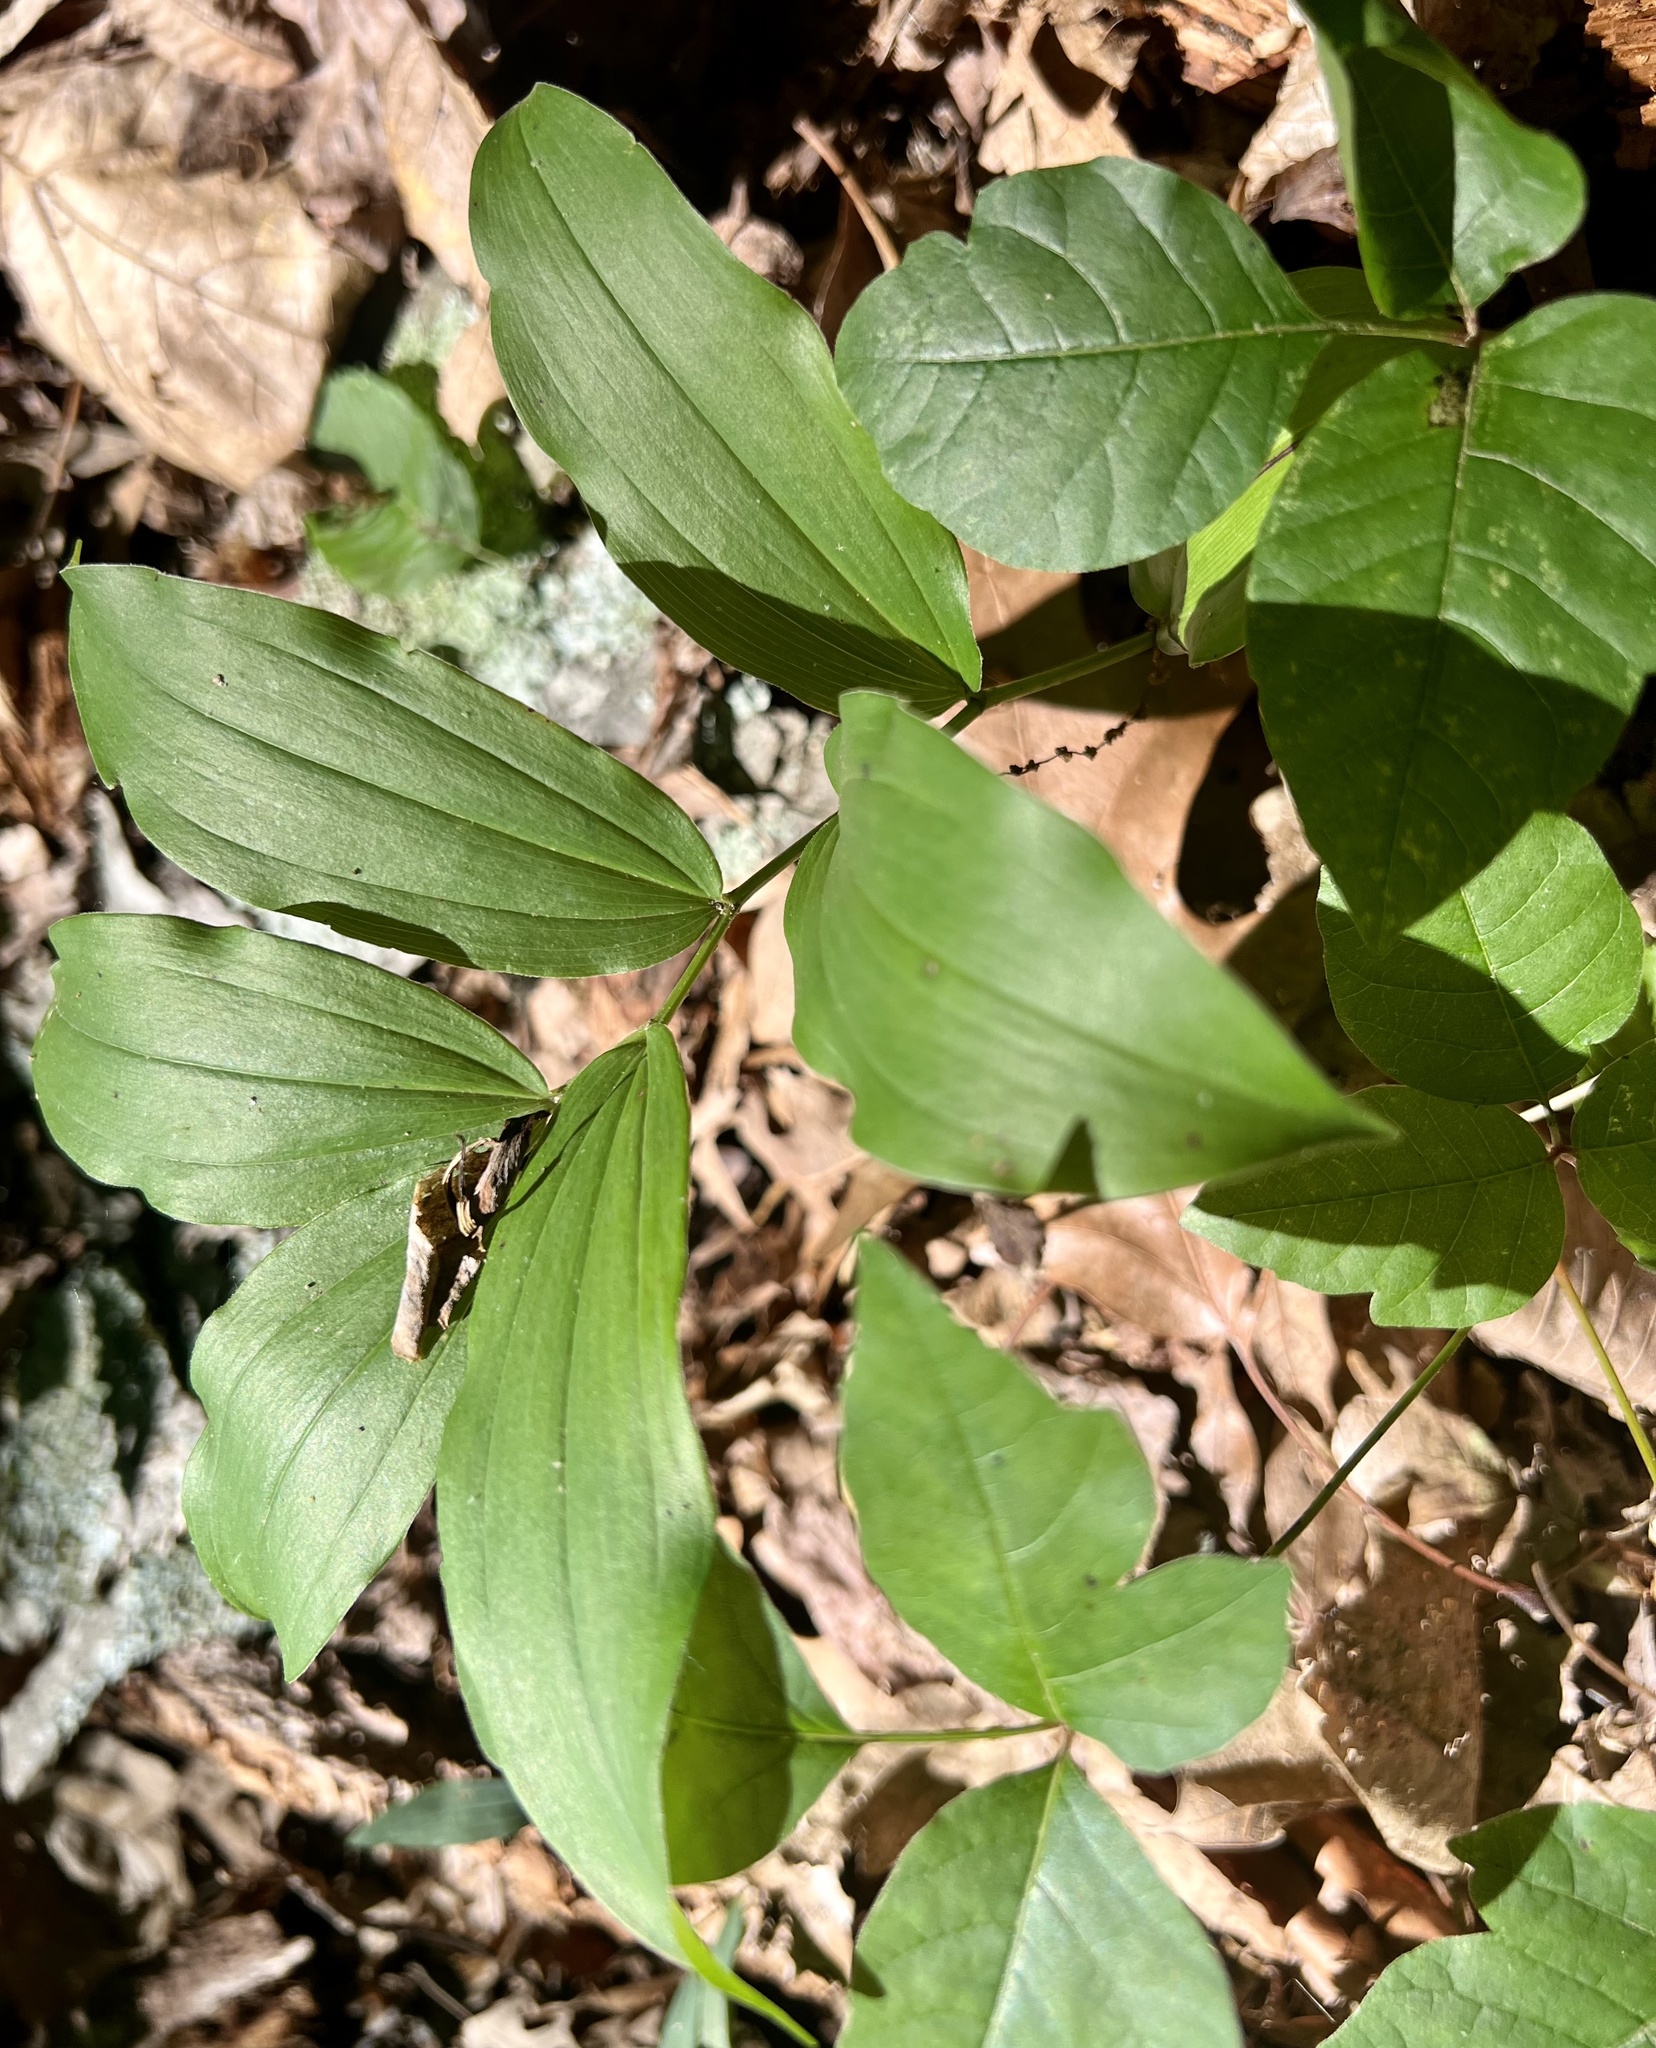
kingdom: Plantae
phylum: Tracheophyta
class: Liliopsida
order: Asparagales
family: Asparagaceae
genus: Maianthemum
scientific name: Maianthemum racemosum
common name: False spikenard
